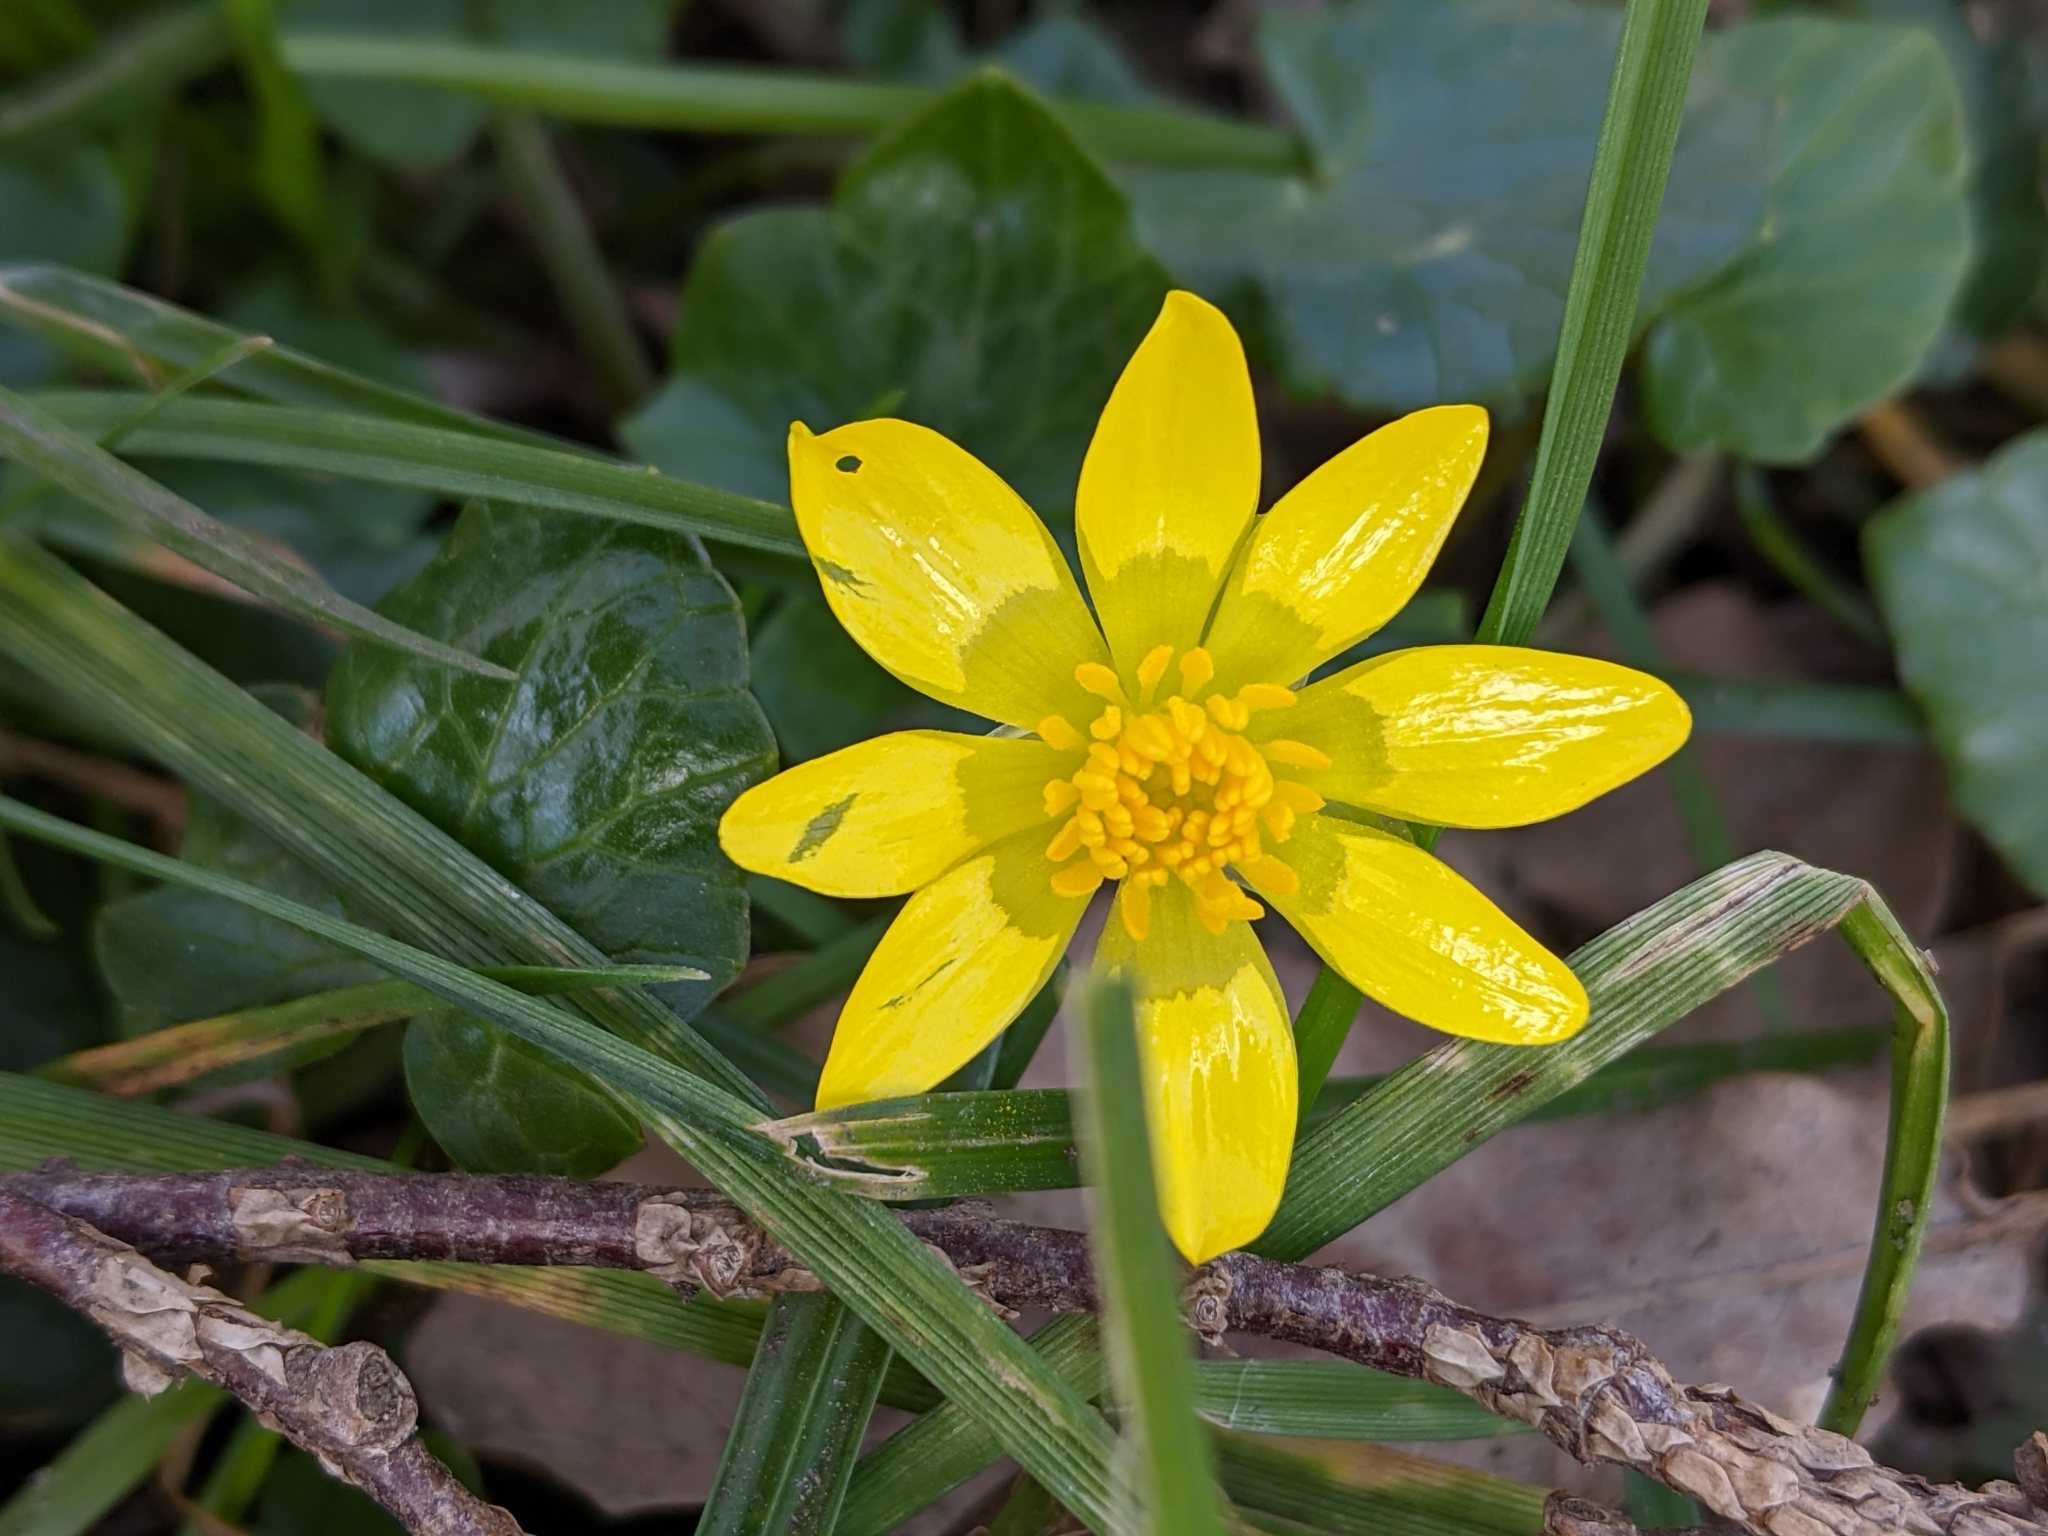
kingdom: Plantae
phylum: Tracheophyta
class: Magnoliopsida
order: Ranunculales
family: Ranunculaceae
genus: Ficaria
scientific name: Ficaria verna
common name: Lesser celandine
